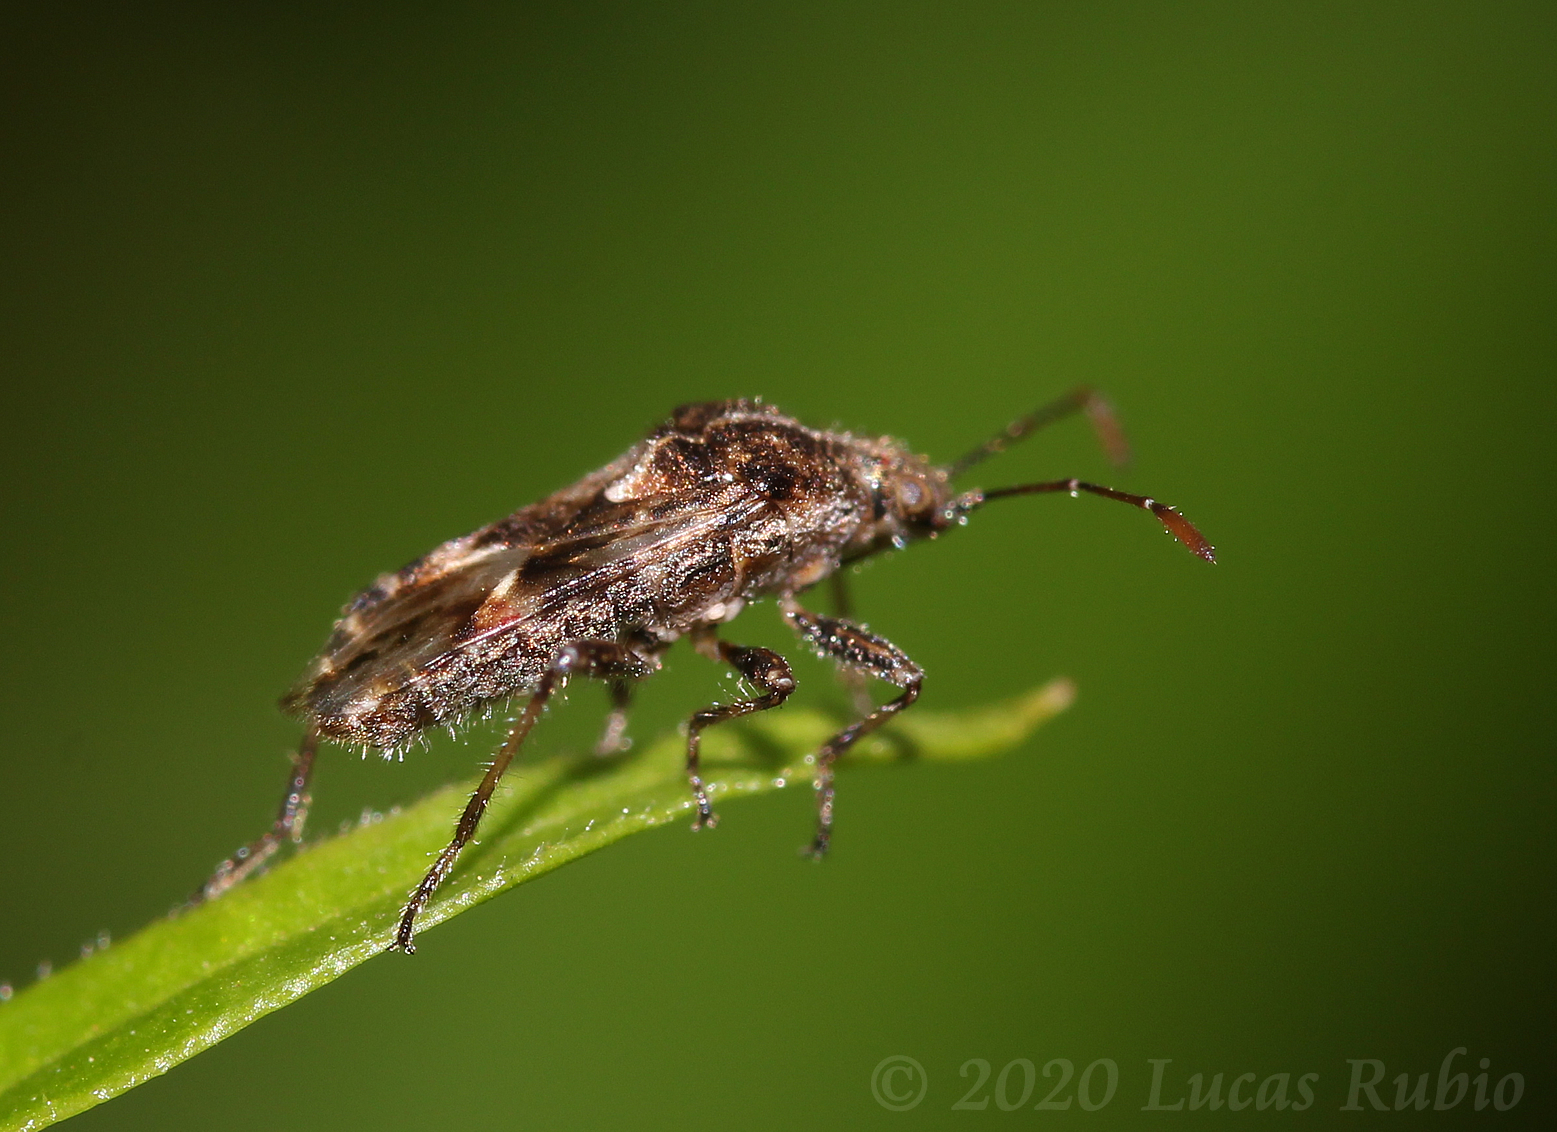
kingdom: Animalia
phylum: Arthropoda
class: Insecta
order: Hemiptera
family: Lygaeidae
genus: Neortholomus
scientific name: Neortholomus gibbifer
